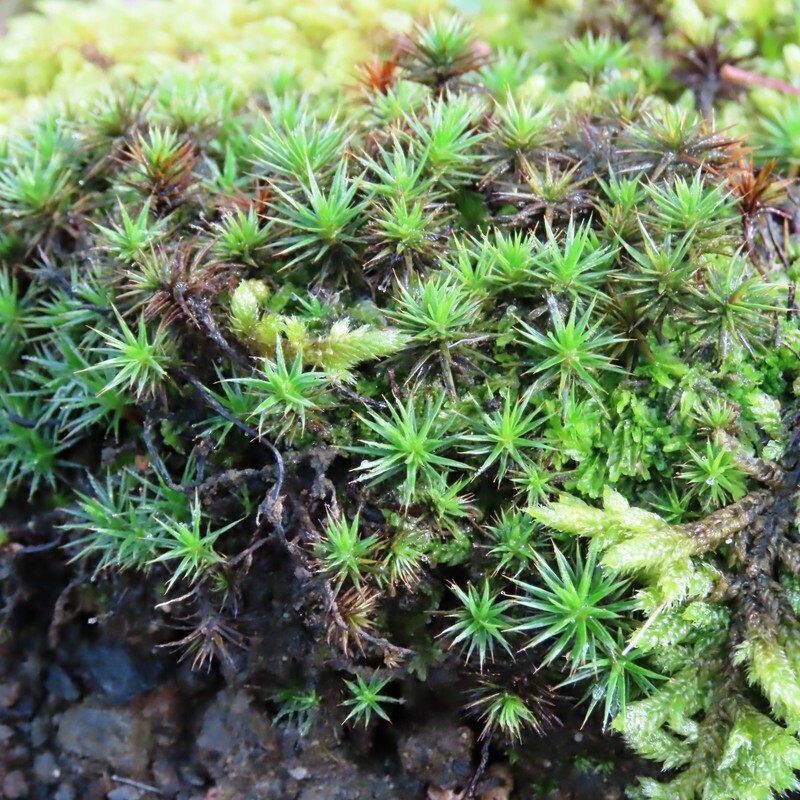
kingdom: Plantae
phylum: Bryophyta
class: Polytrichopsida
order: Polytrichales
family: Polytrichaceae
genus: Polytrichum
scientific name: Polytrichum juniperinum
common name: Juniper haircap moss
